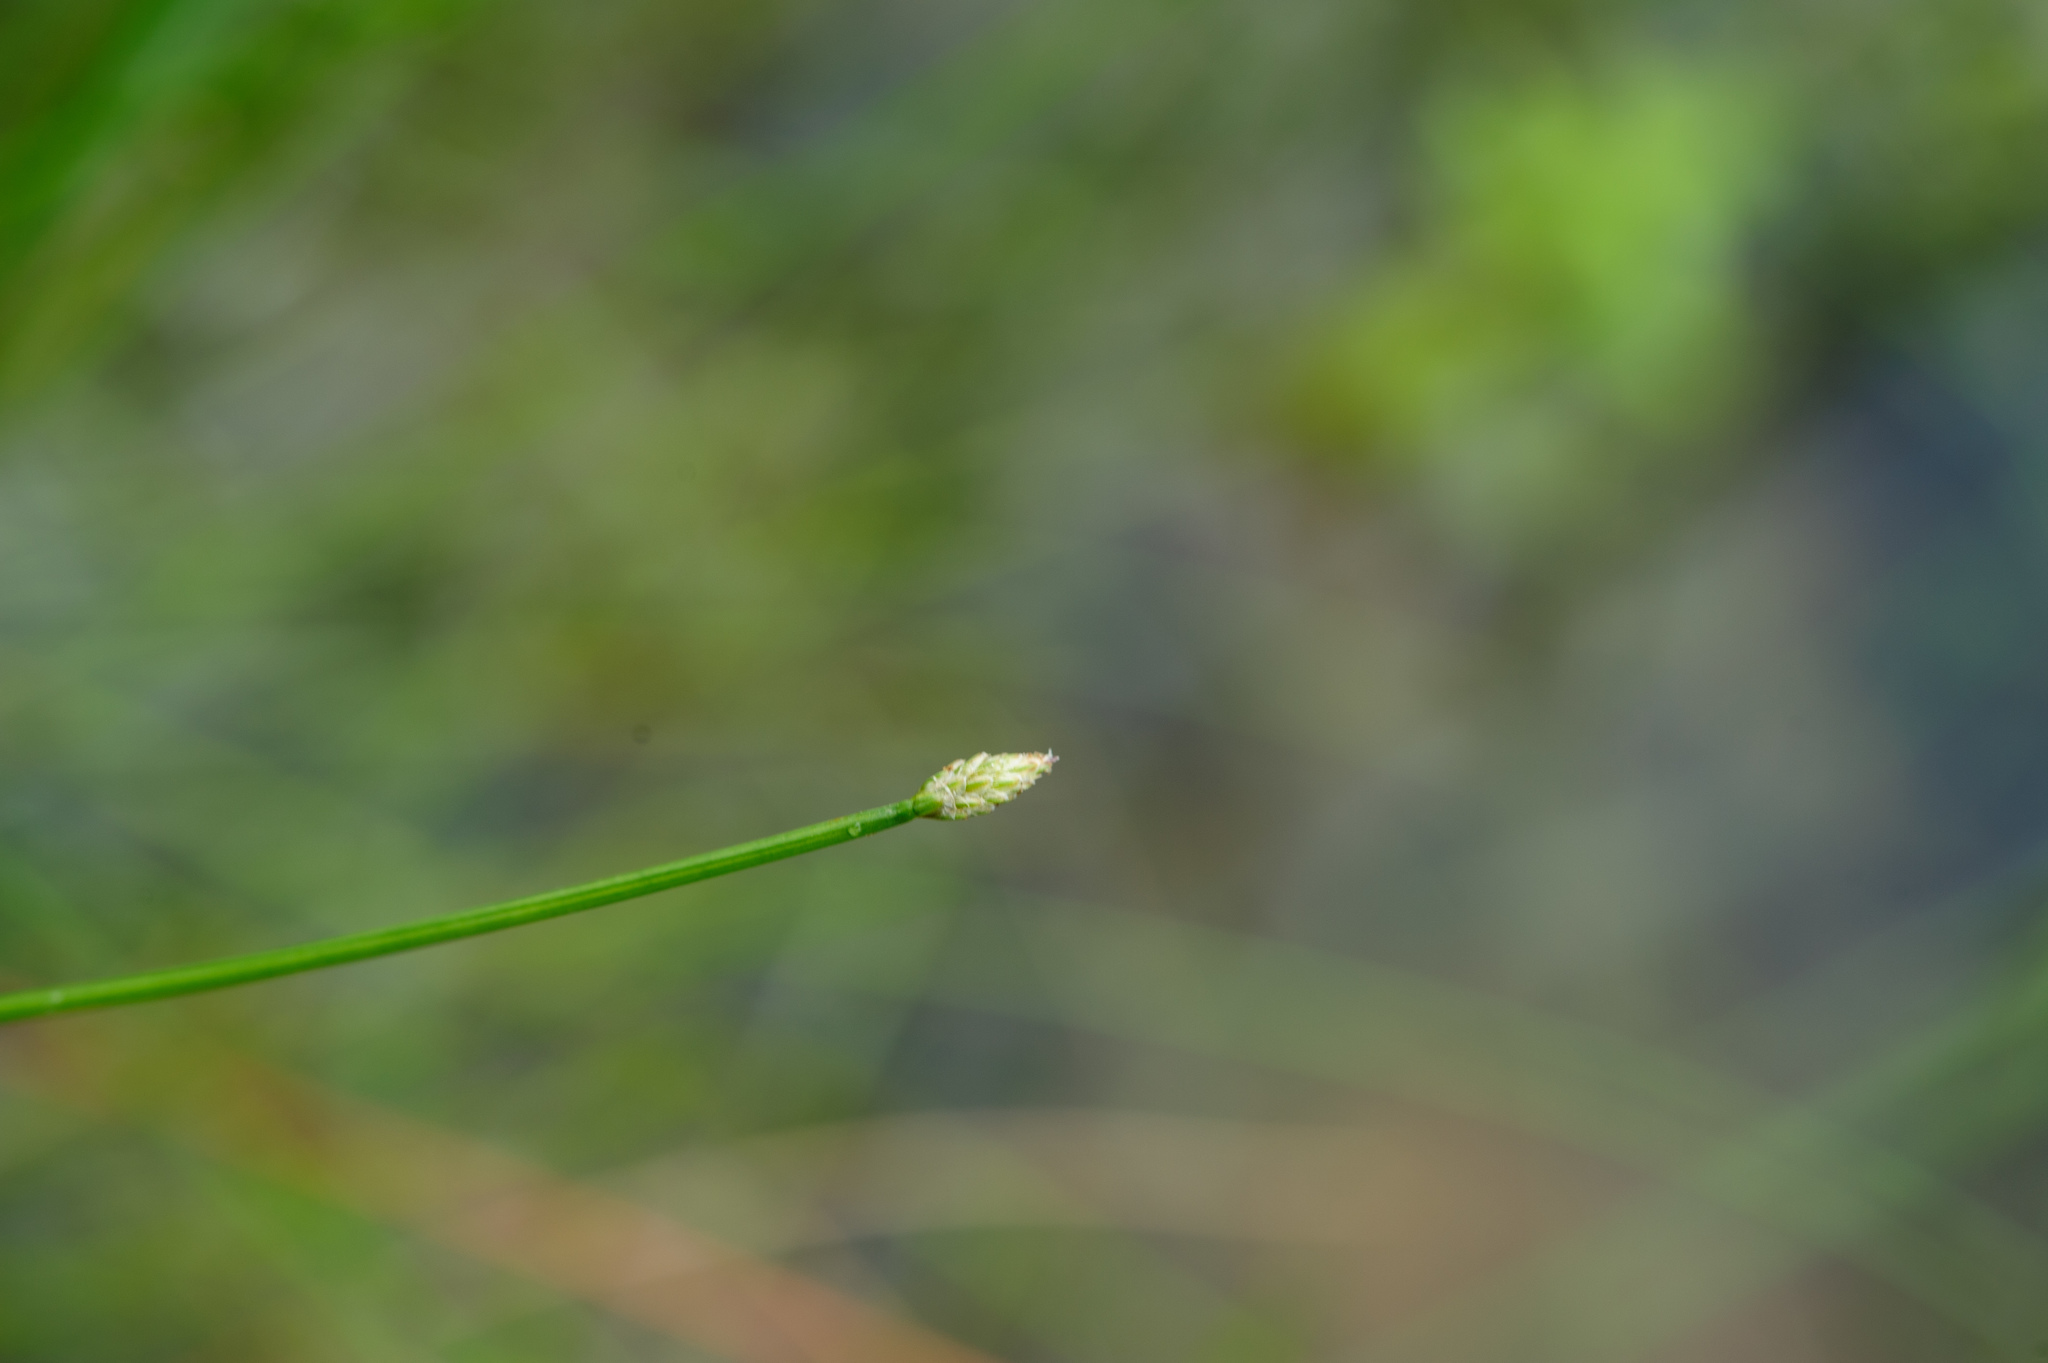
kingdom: Plantae
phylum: Tracheophyta
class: Liliopsida
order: Poales
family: Cyperaceae
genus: Eleocharis
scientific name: Eleocharis pellucida
